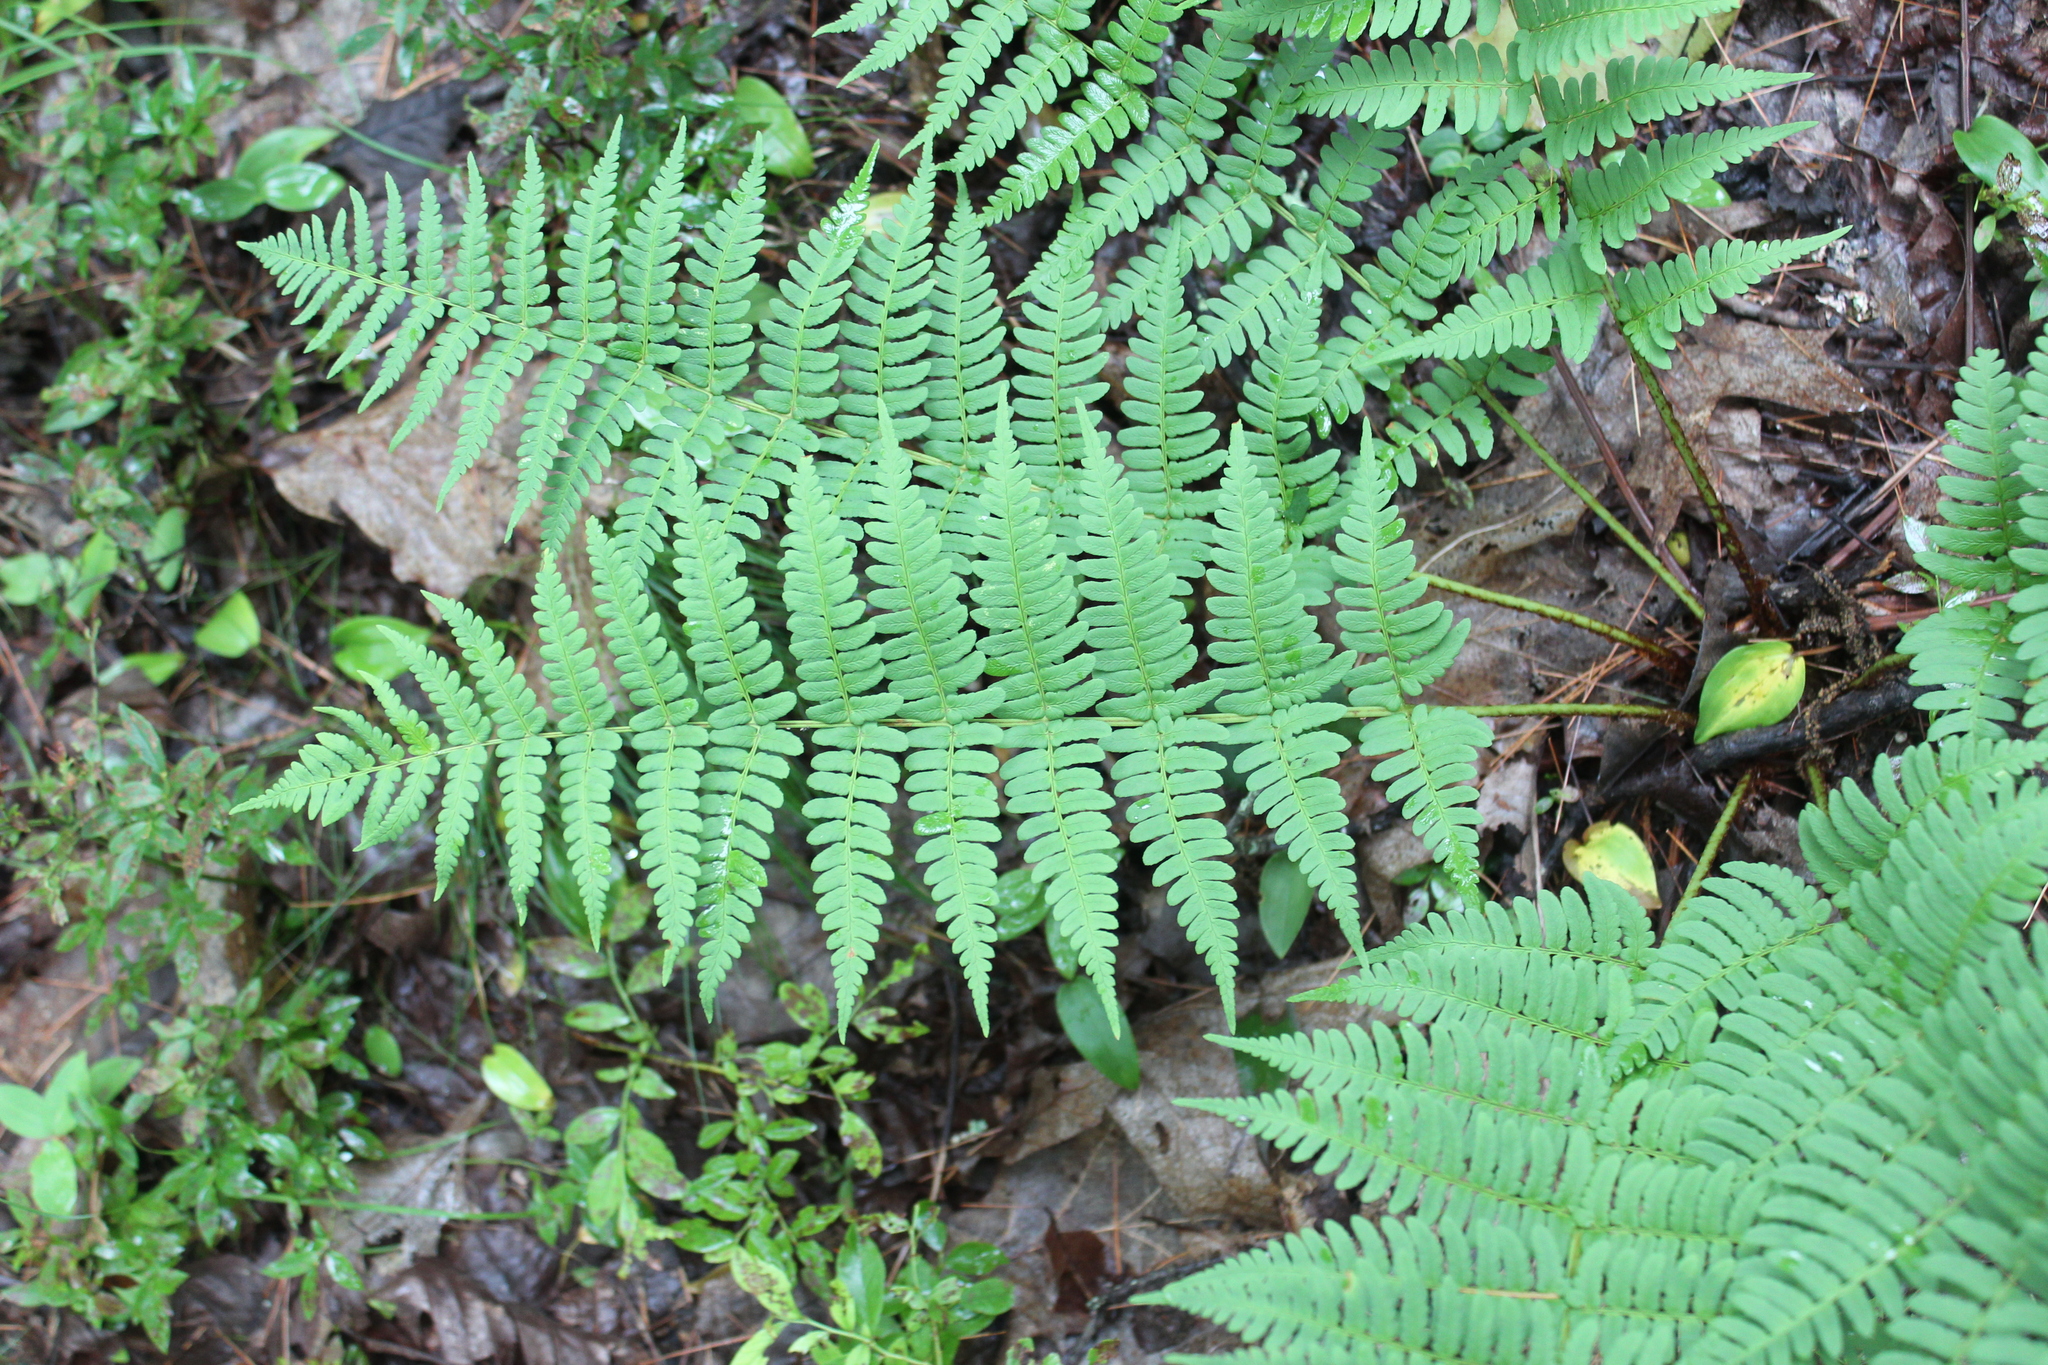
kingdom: Plantae
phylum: Tracheophyta
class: Polypodiopsida
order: Polypodiales
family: Dryopteridaceae
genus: Dryopteris
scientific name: Dryopteris marginalis
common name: Marginal wood fern
